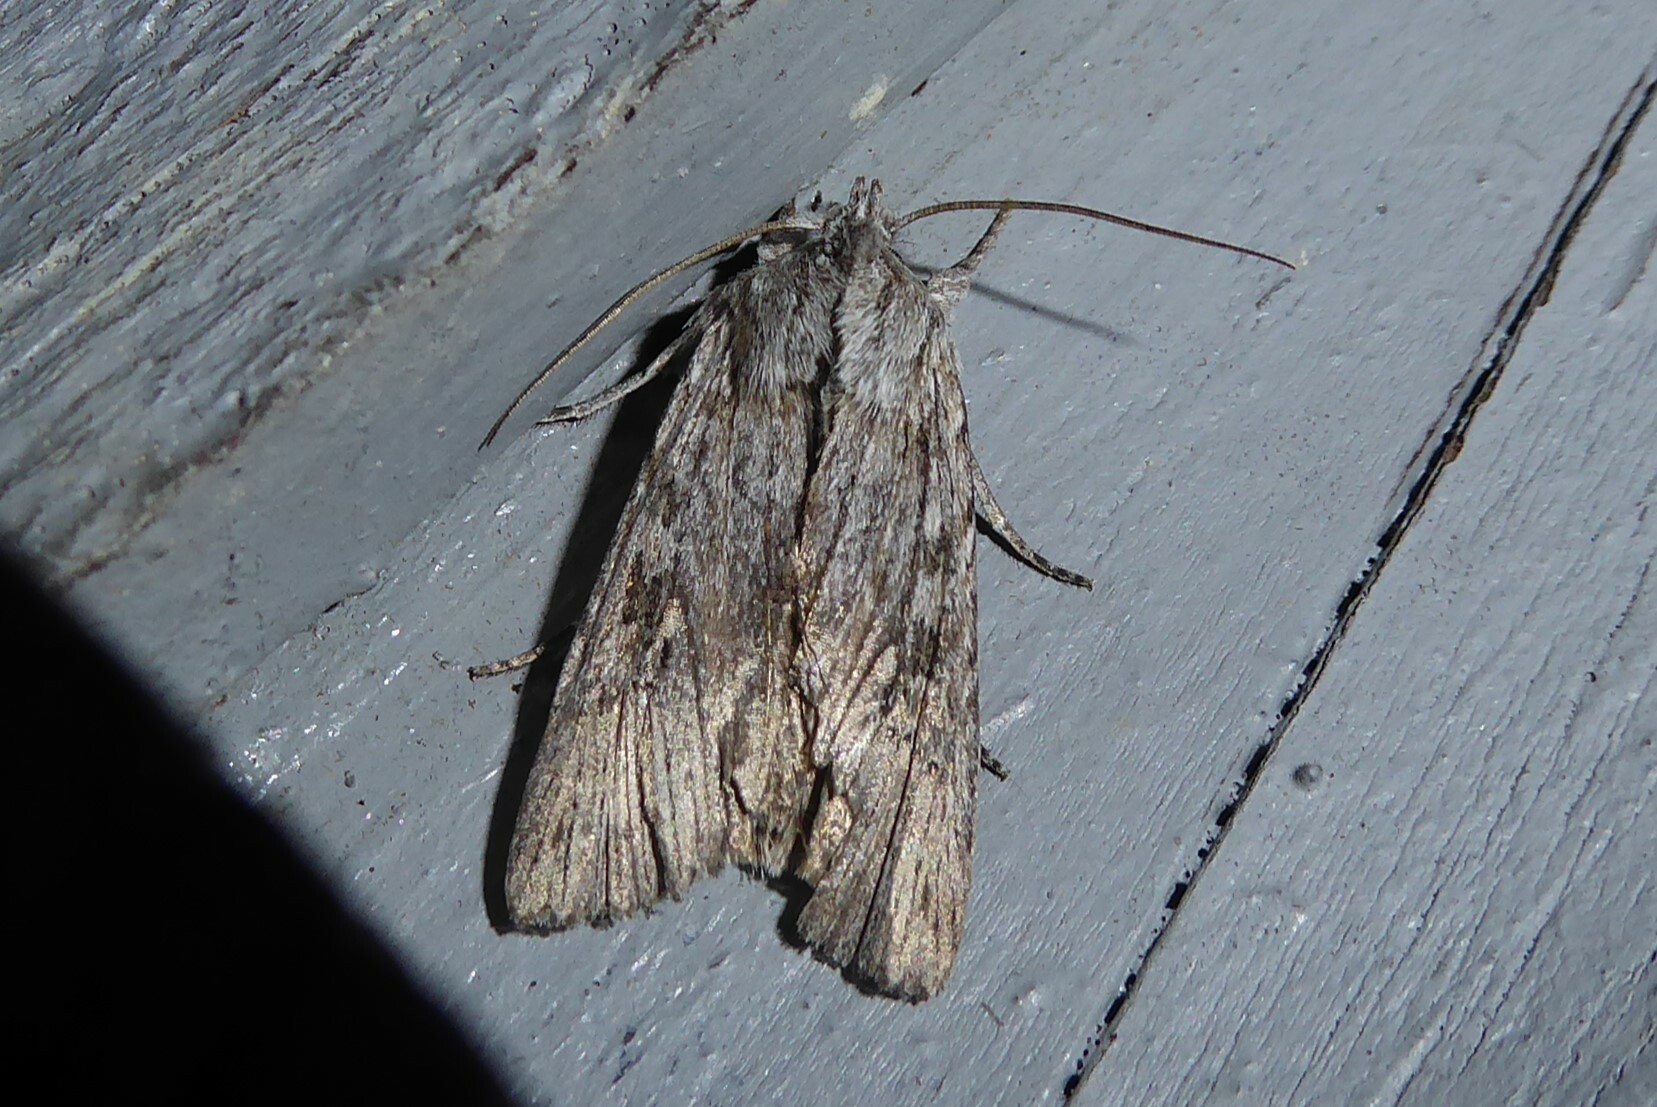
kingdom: Animalia
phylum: Arthropoda
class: Insecta
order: Lepidoptera
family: Noctuidae
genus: Physetica
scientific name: Physetica phricias
